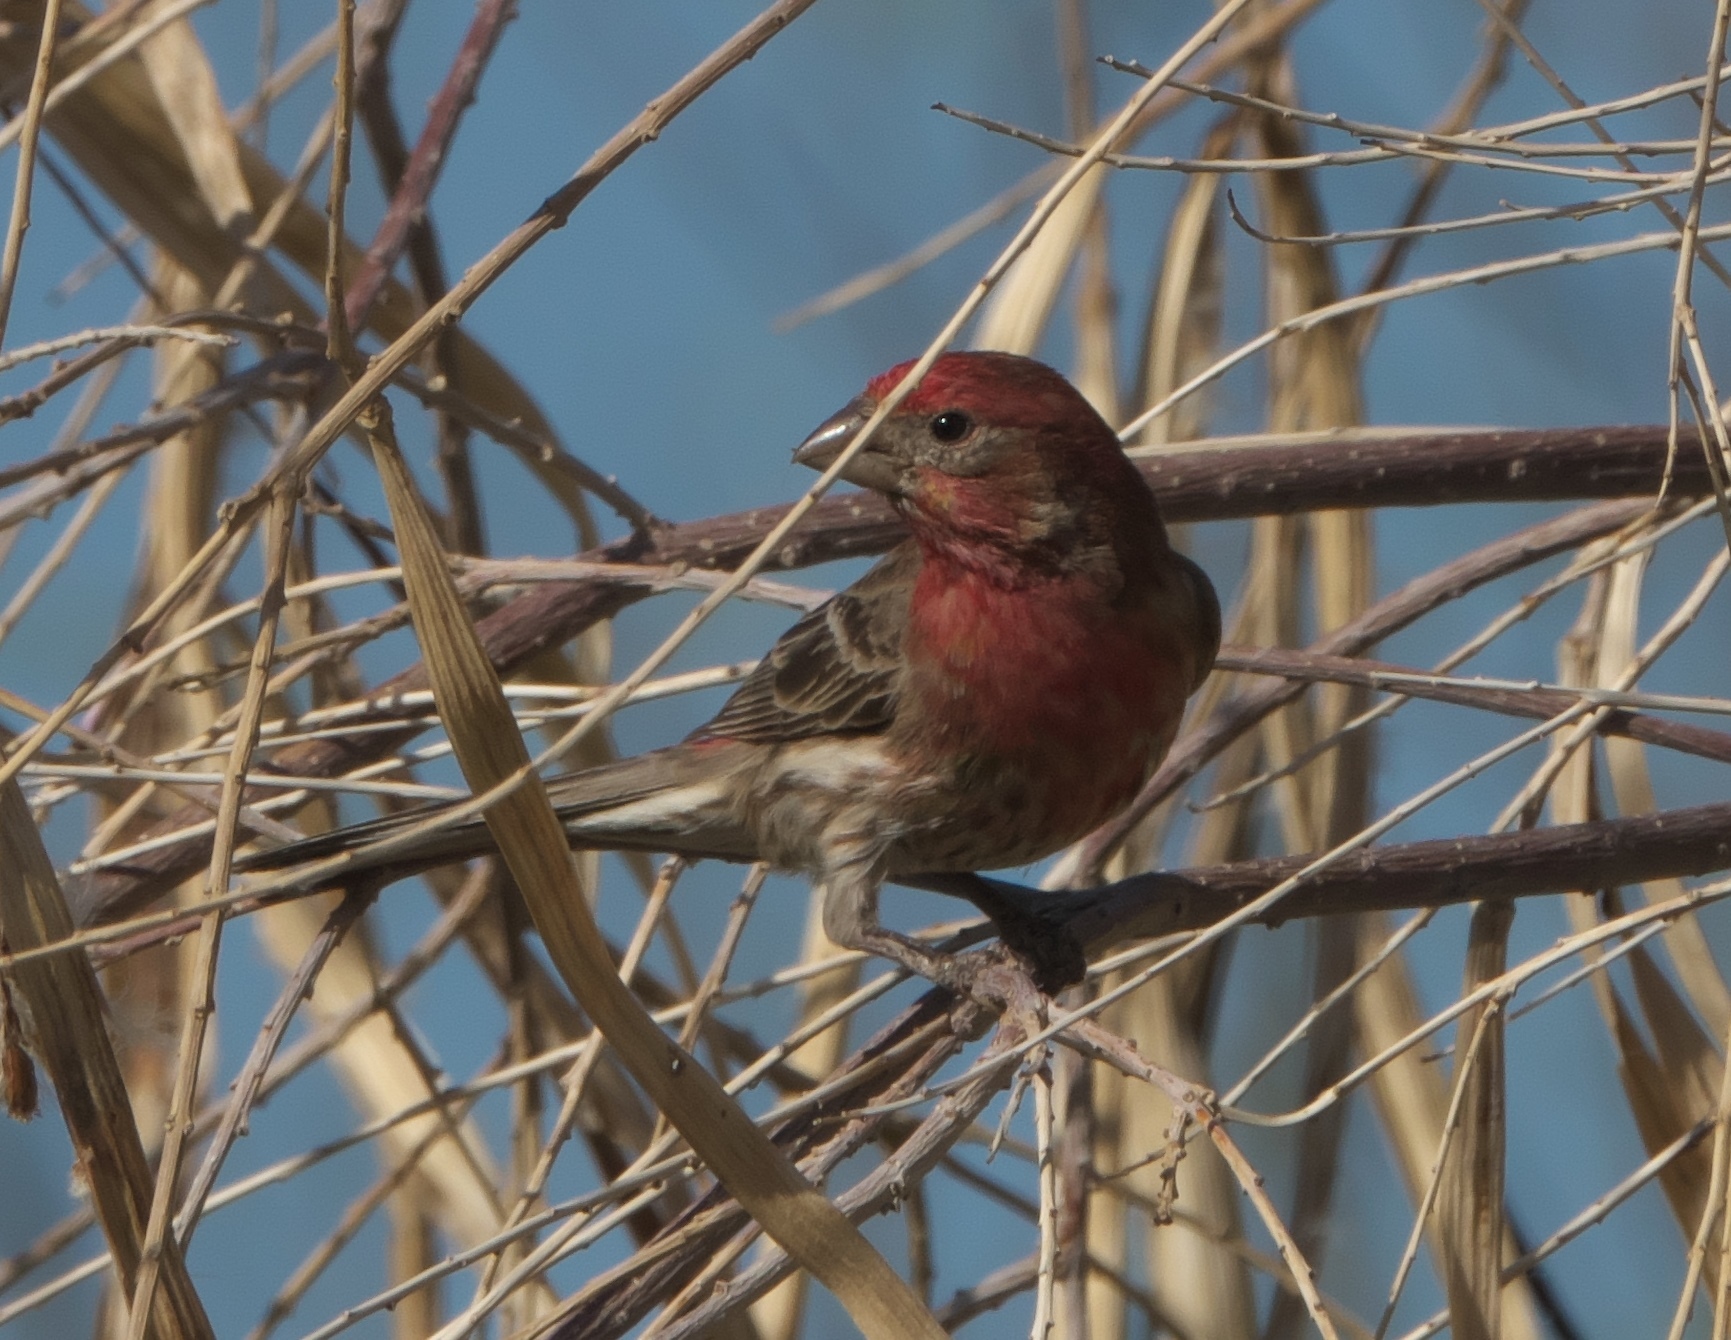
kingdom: Animalia
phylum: Chordata
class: Aves
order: Passeriformes
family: Fringillidae
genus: Haemorhous
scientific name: Haemorhous mexicanus
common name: House finch
